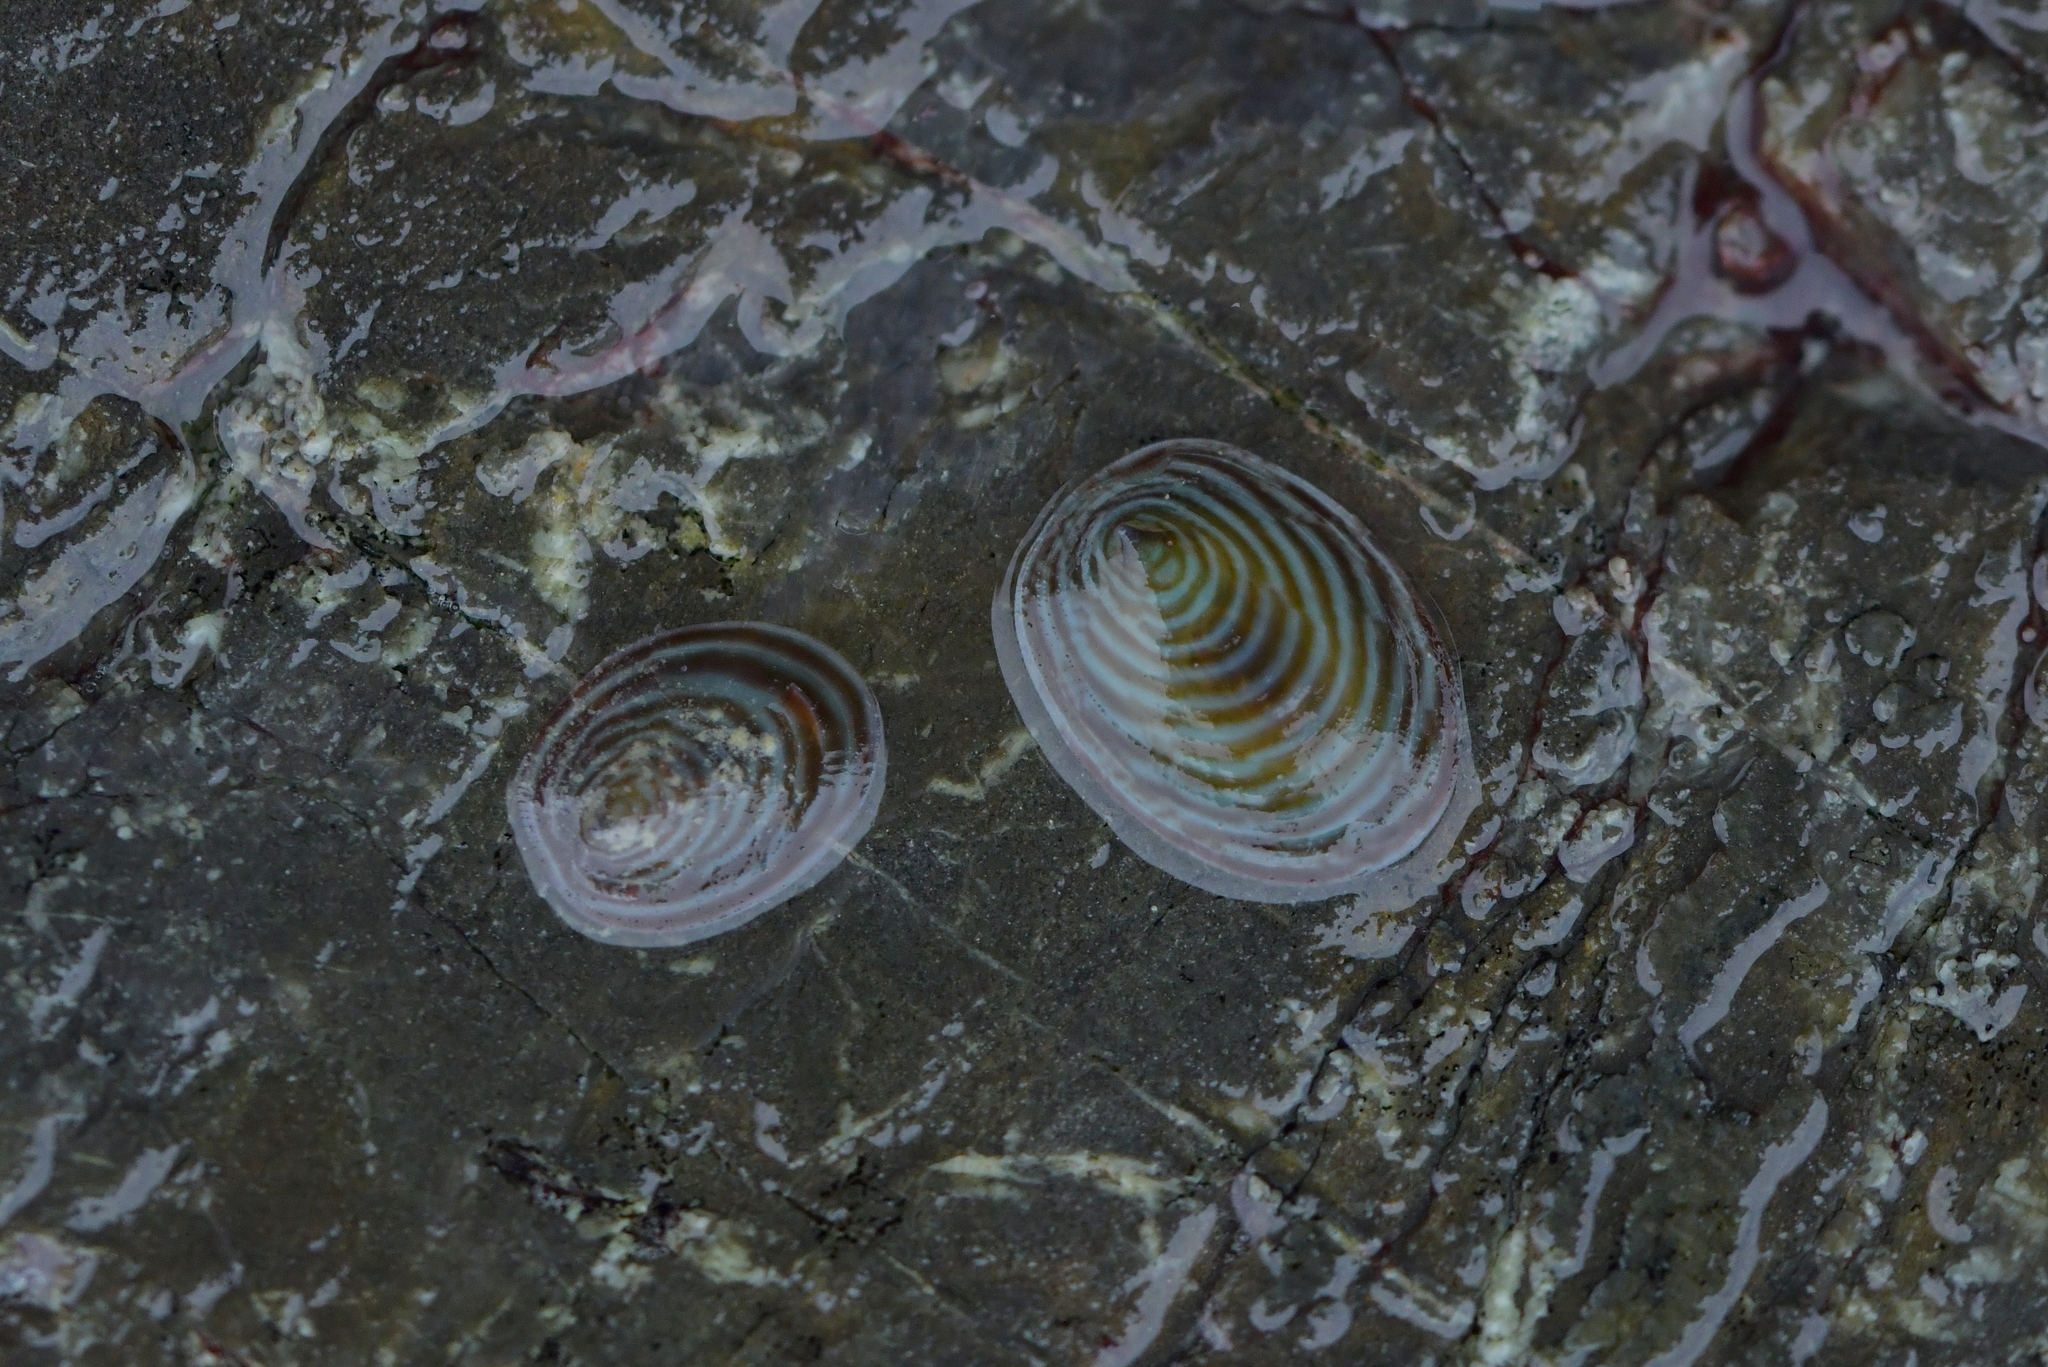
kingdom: Animalia
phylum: Mollusca
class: Gastropoda
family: Lottiidae
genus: Atalacmea
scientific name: Atalacmea fragilis
